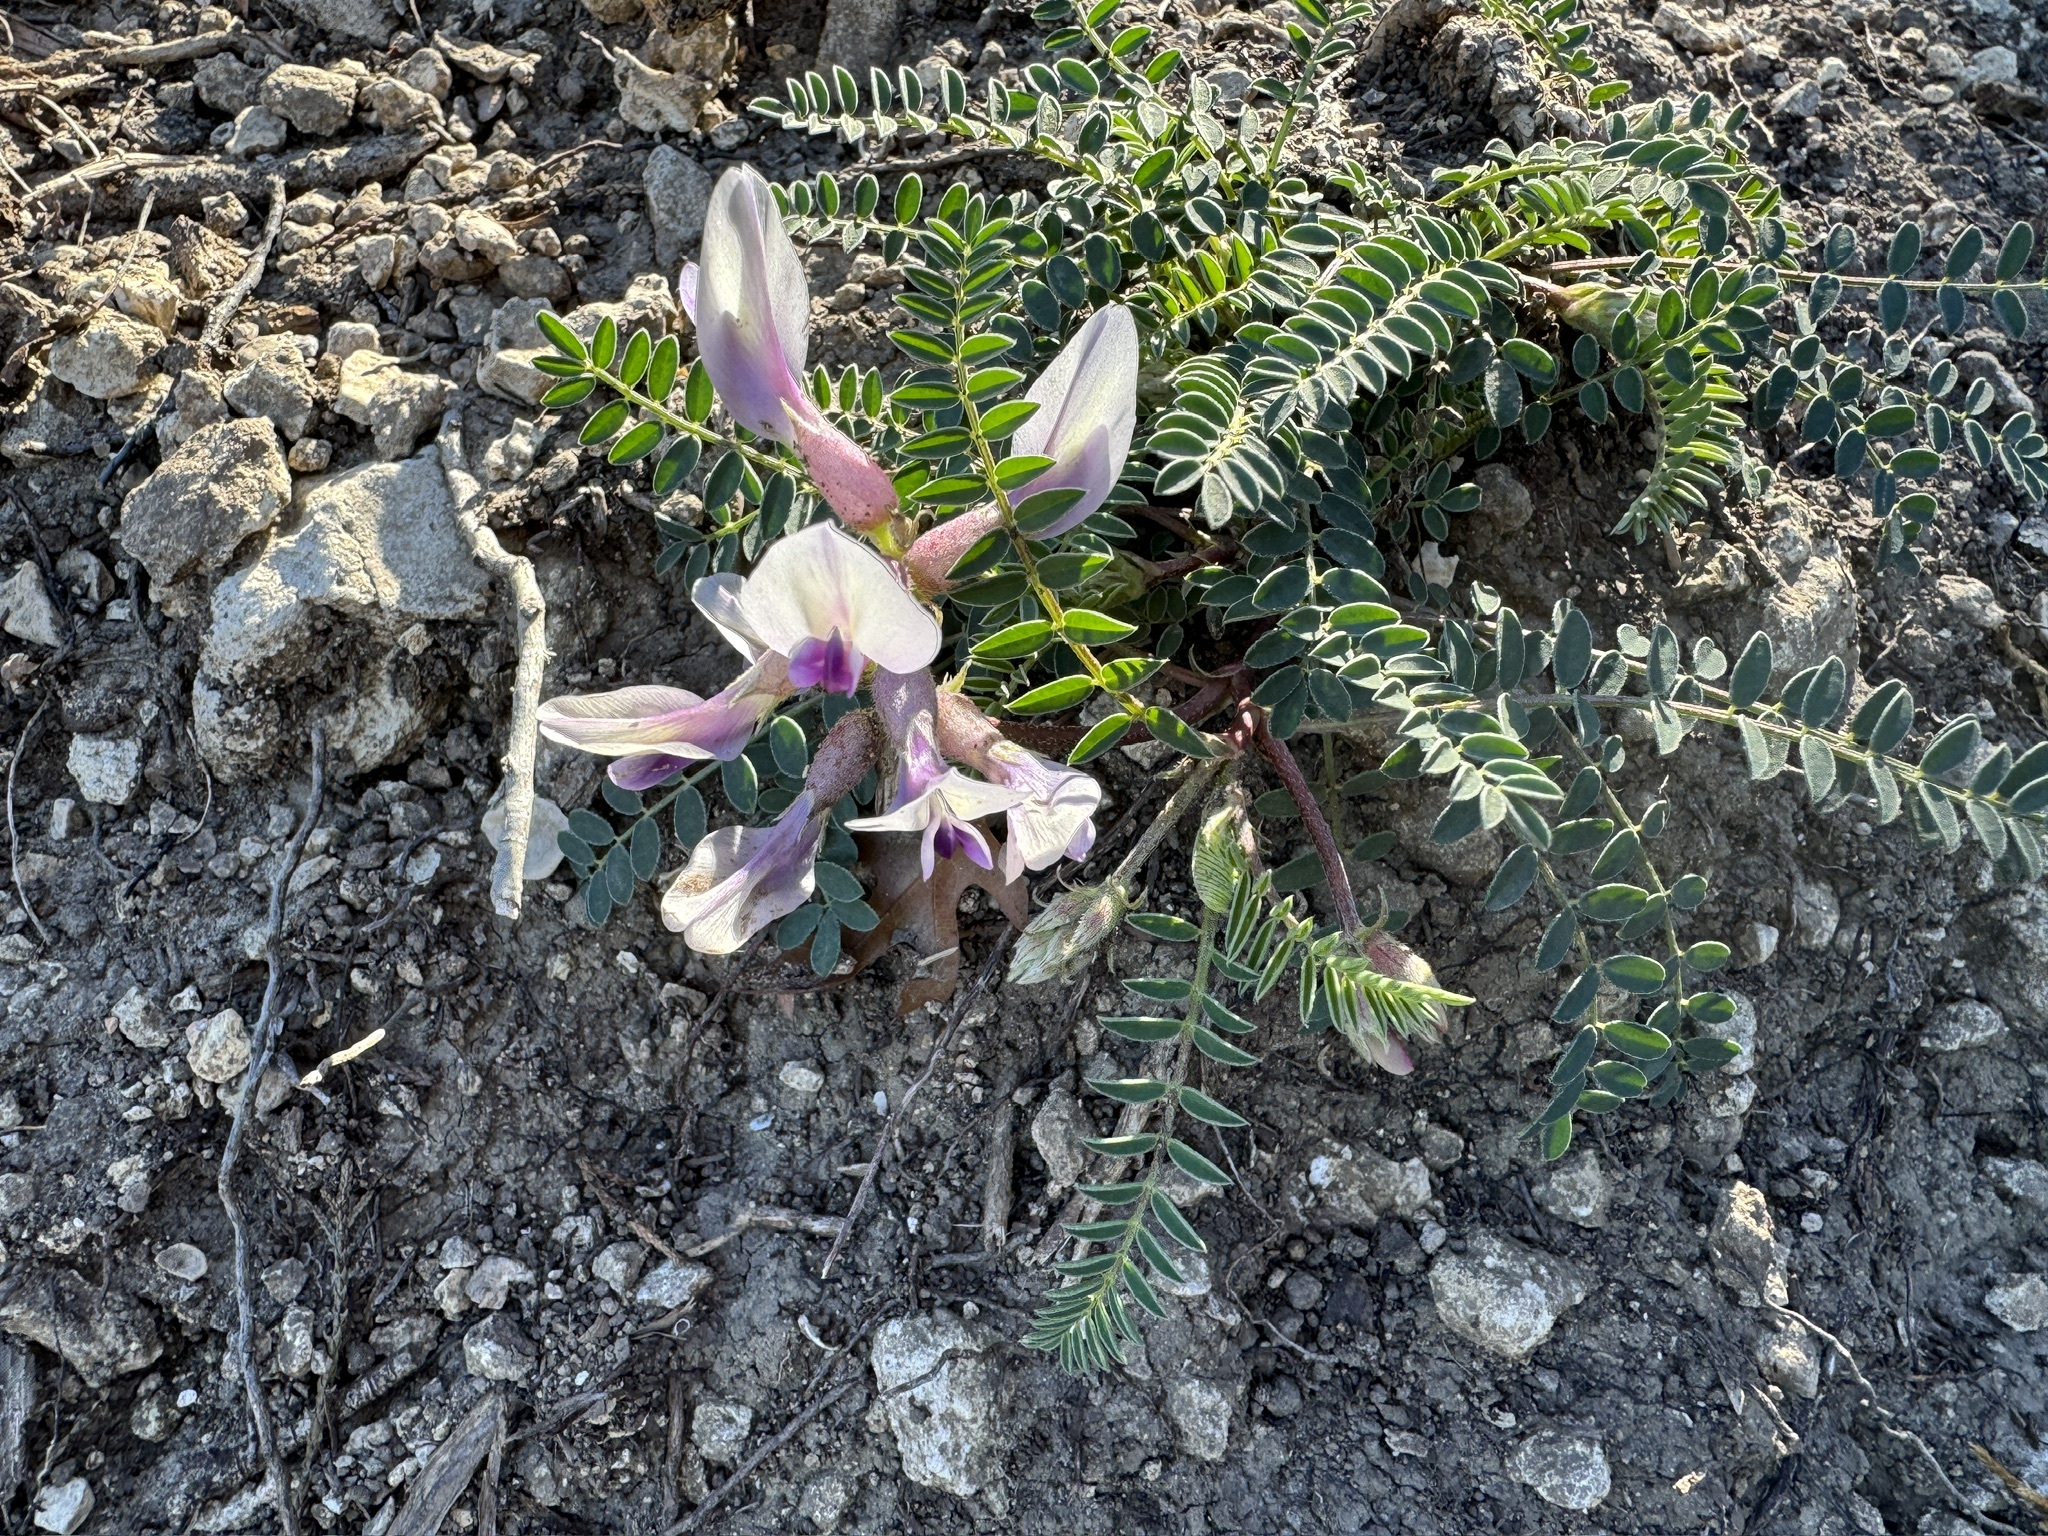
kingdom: Plantae
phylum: Tracheophyta
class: Magnoliopsida
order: Fabales
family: Fabaceae
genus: Astragalus
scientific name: Astragalus crassicarpus
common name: Ground-plum milk-vetch
